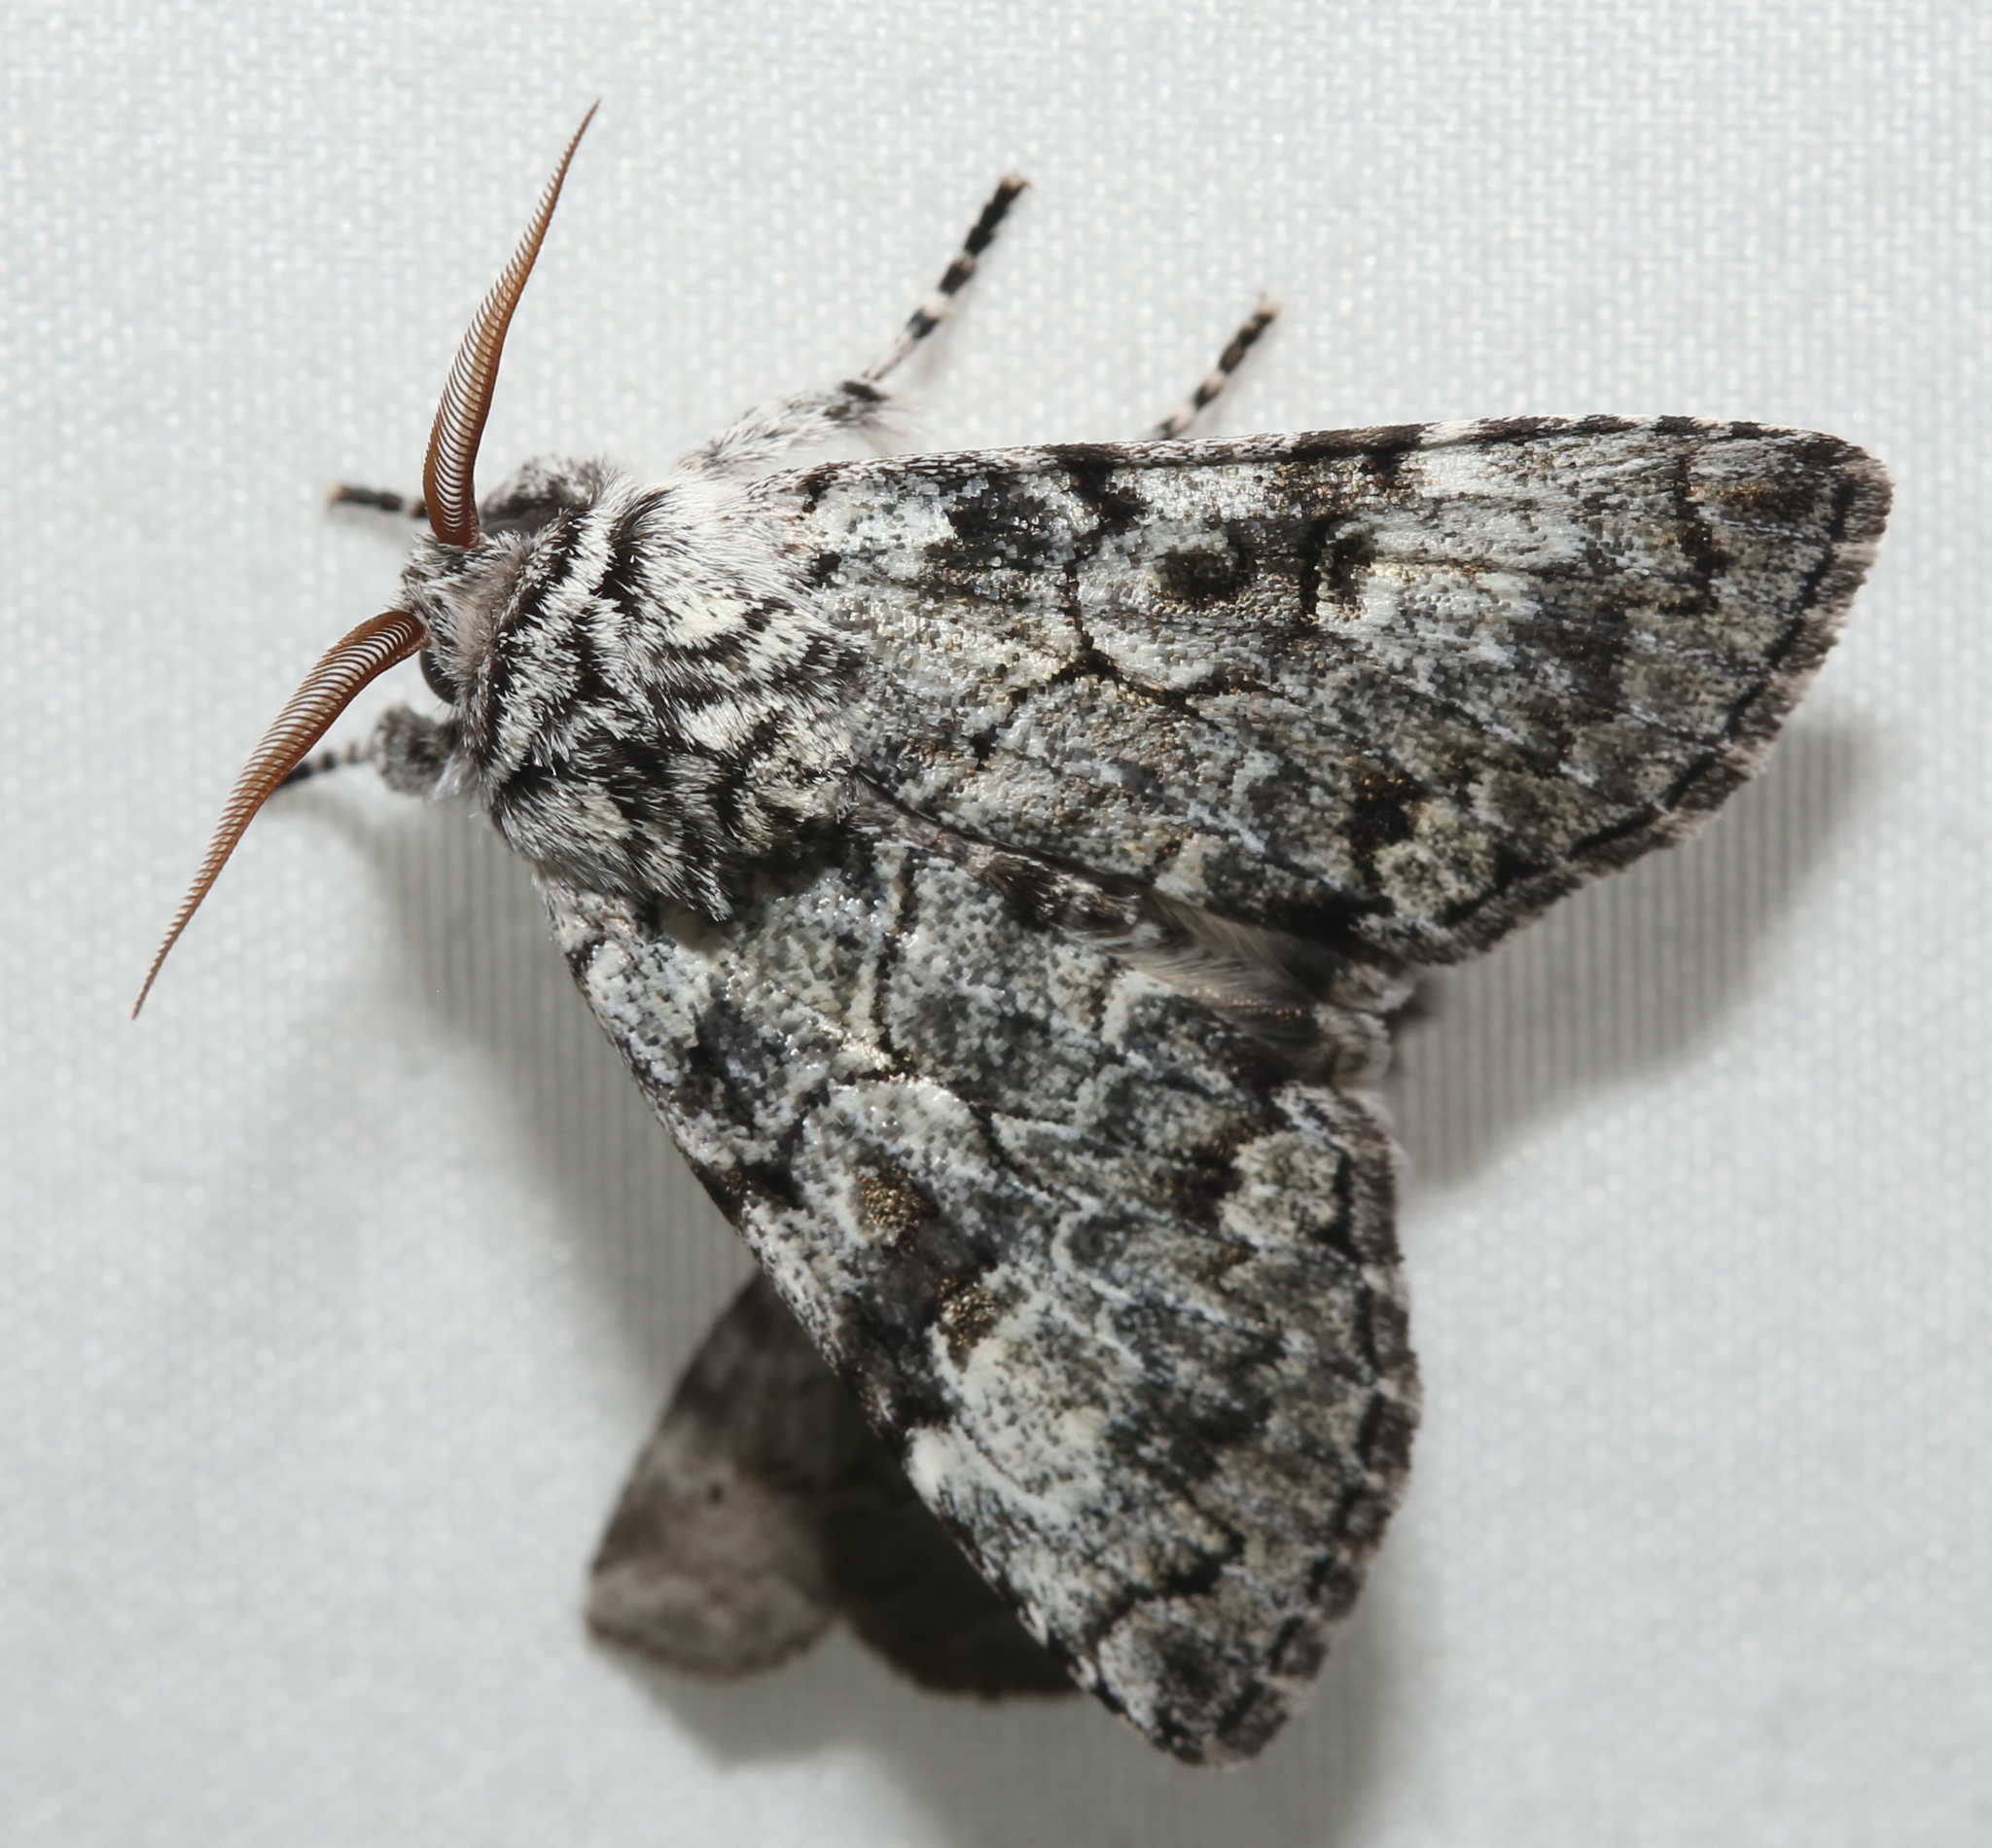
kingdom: Animalia
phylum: Arthropoda
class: Insecta
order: Lepidoptera
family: Noctuidae
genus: Charadra
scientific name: Charadra deridens
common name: Marbled tuffet
